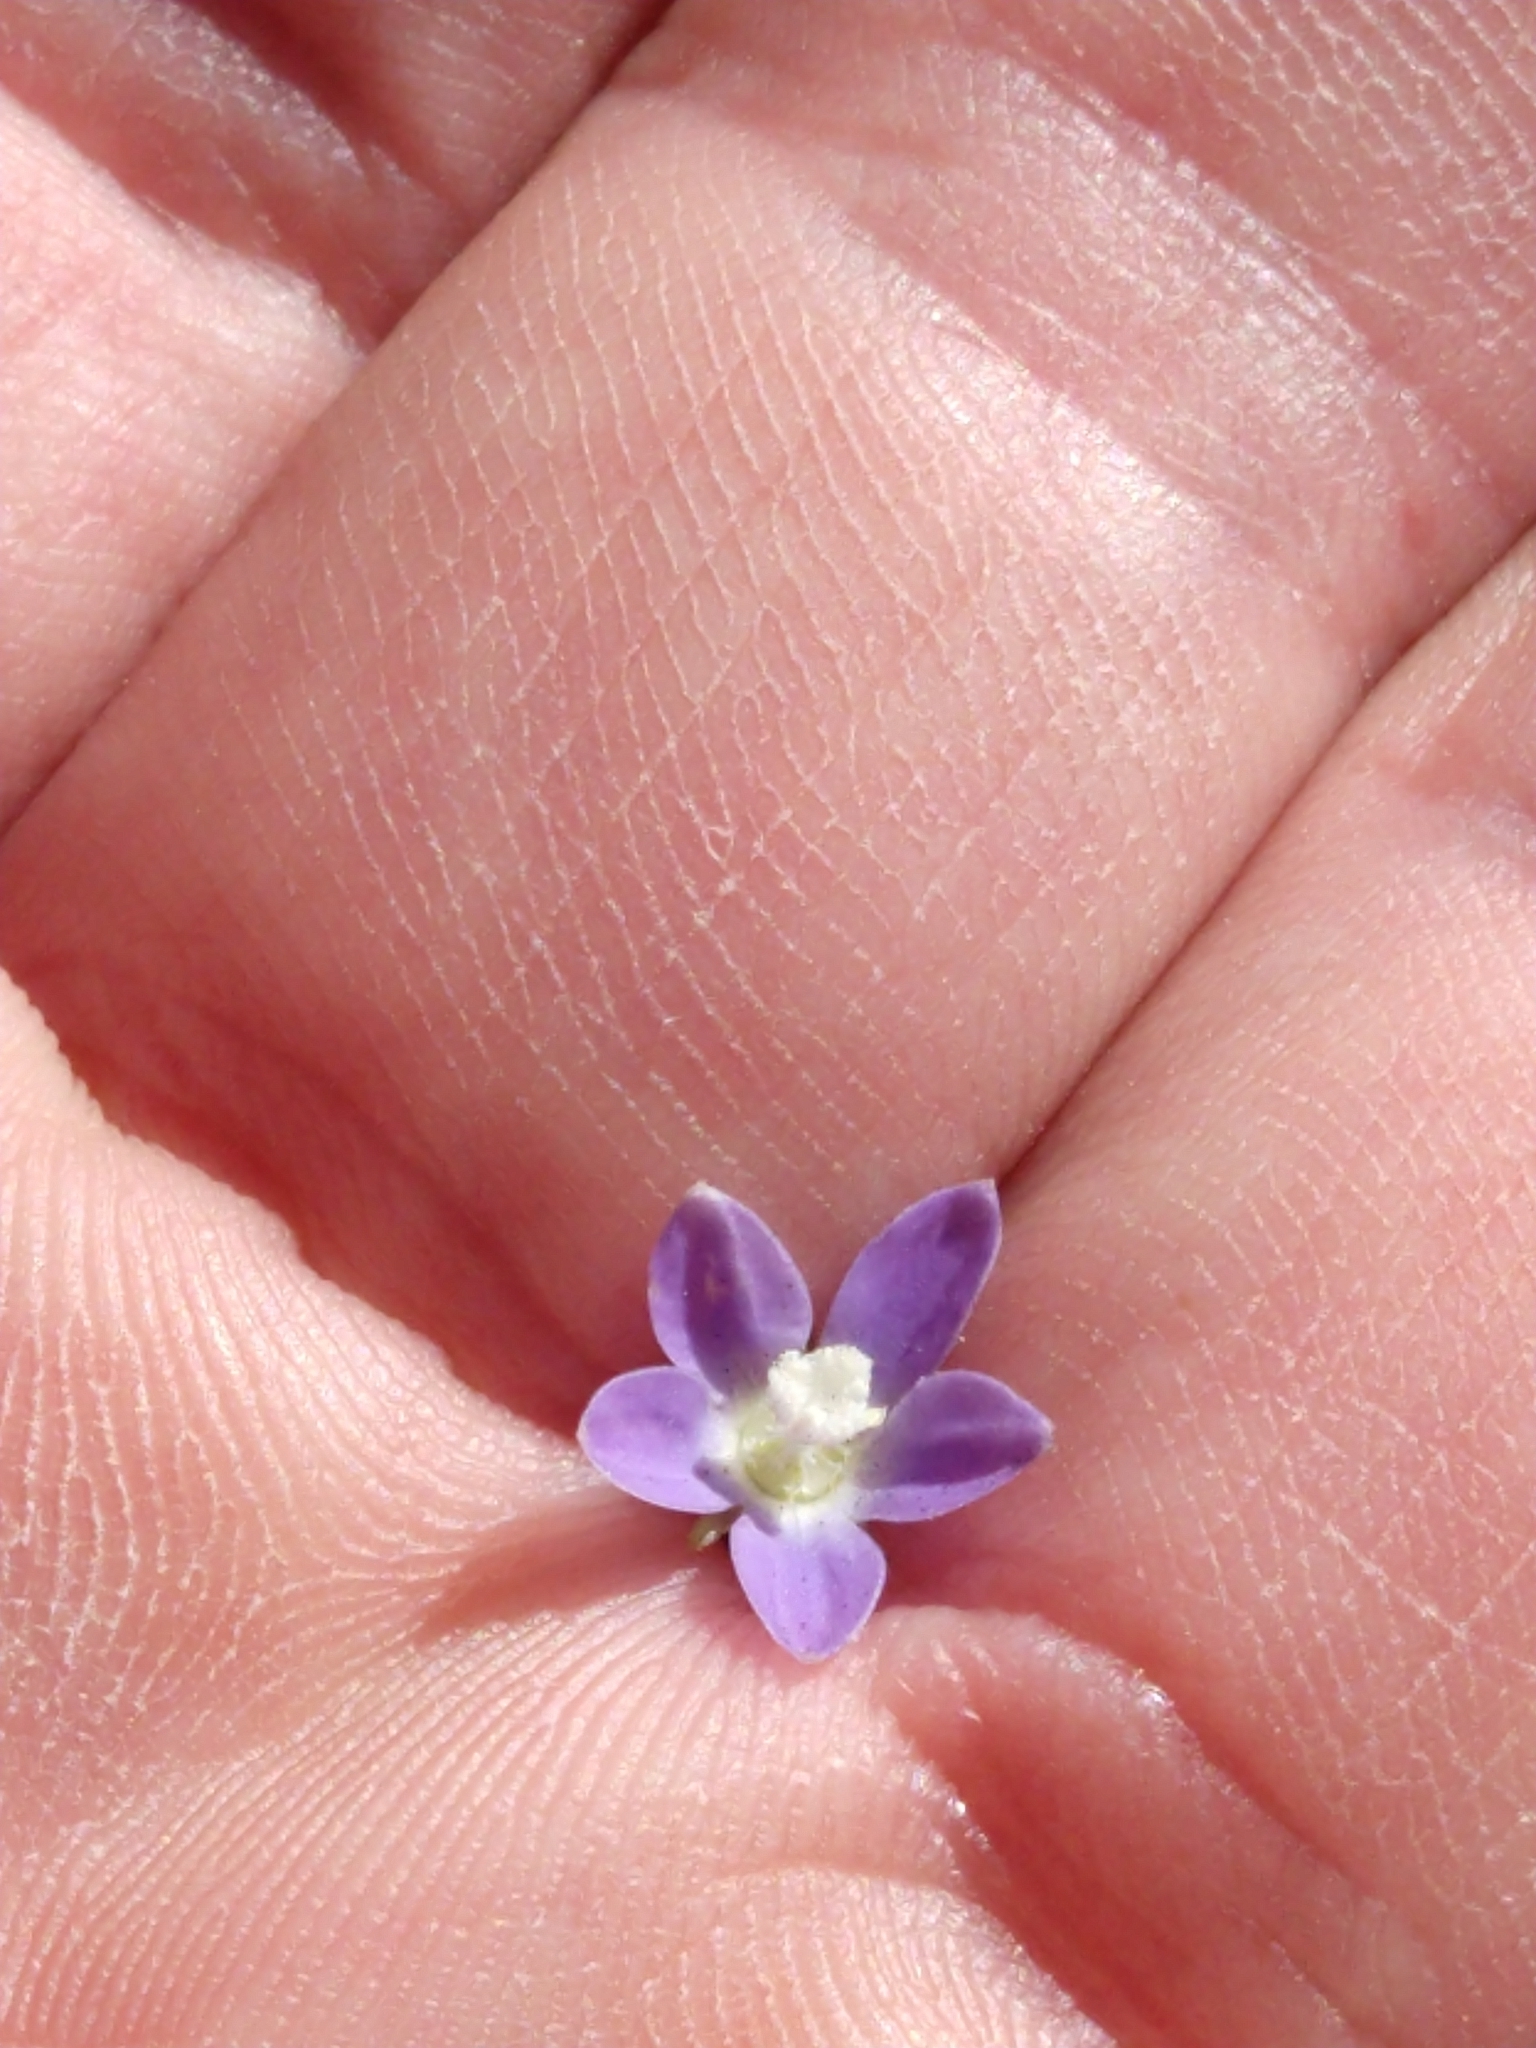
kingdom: Plantae
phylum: Tracheophyta
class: Magnoliopsida
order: Asterales
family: Campanulaceae
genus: Wahlenbergia
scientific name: Wahlenbergia marginata
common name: Southern rockbell
